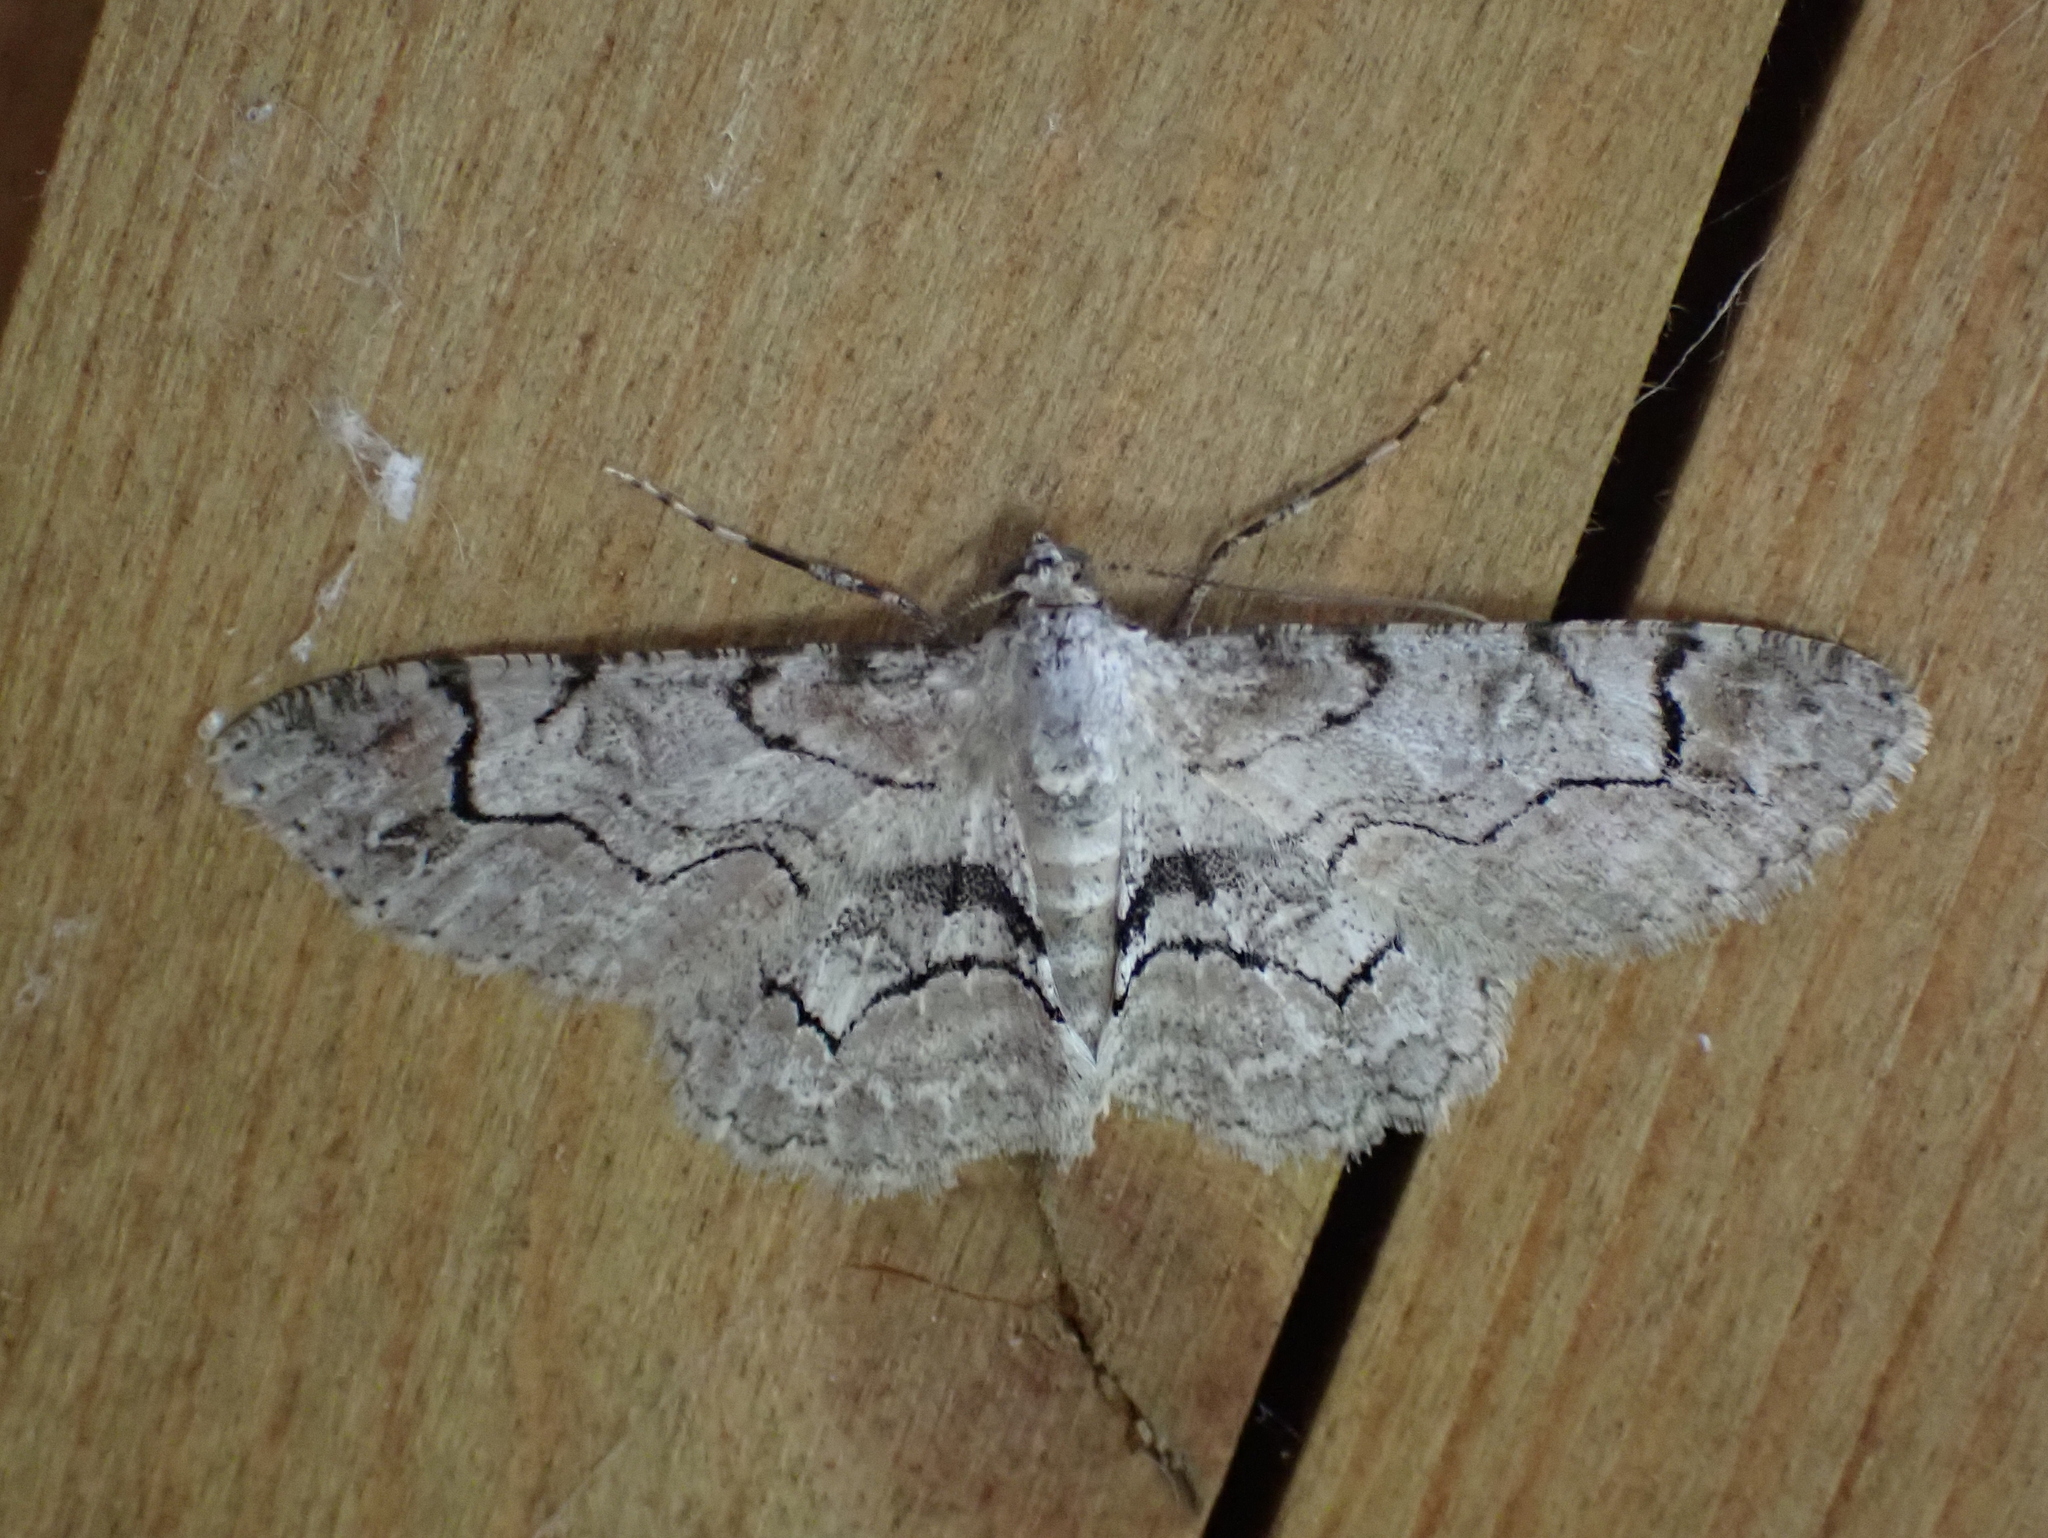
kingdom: Animalia
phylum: Arthropoda
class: Insecta
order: Lepidoptera
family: Geometridae
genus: Iridopsis
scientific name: Iridopsis larvaria
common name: Bent-line gray
